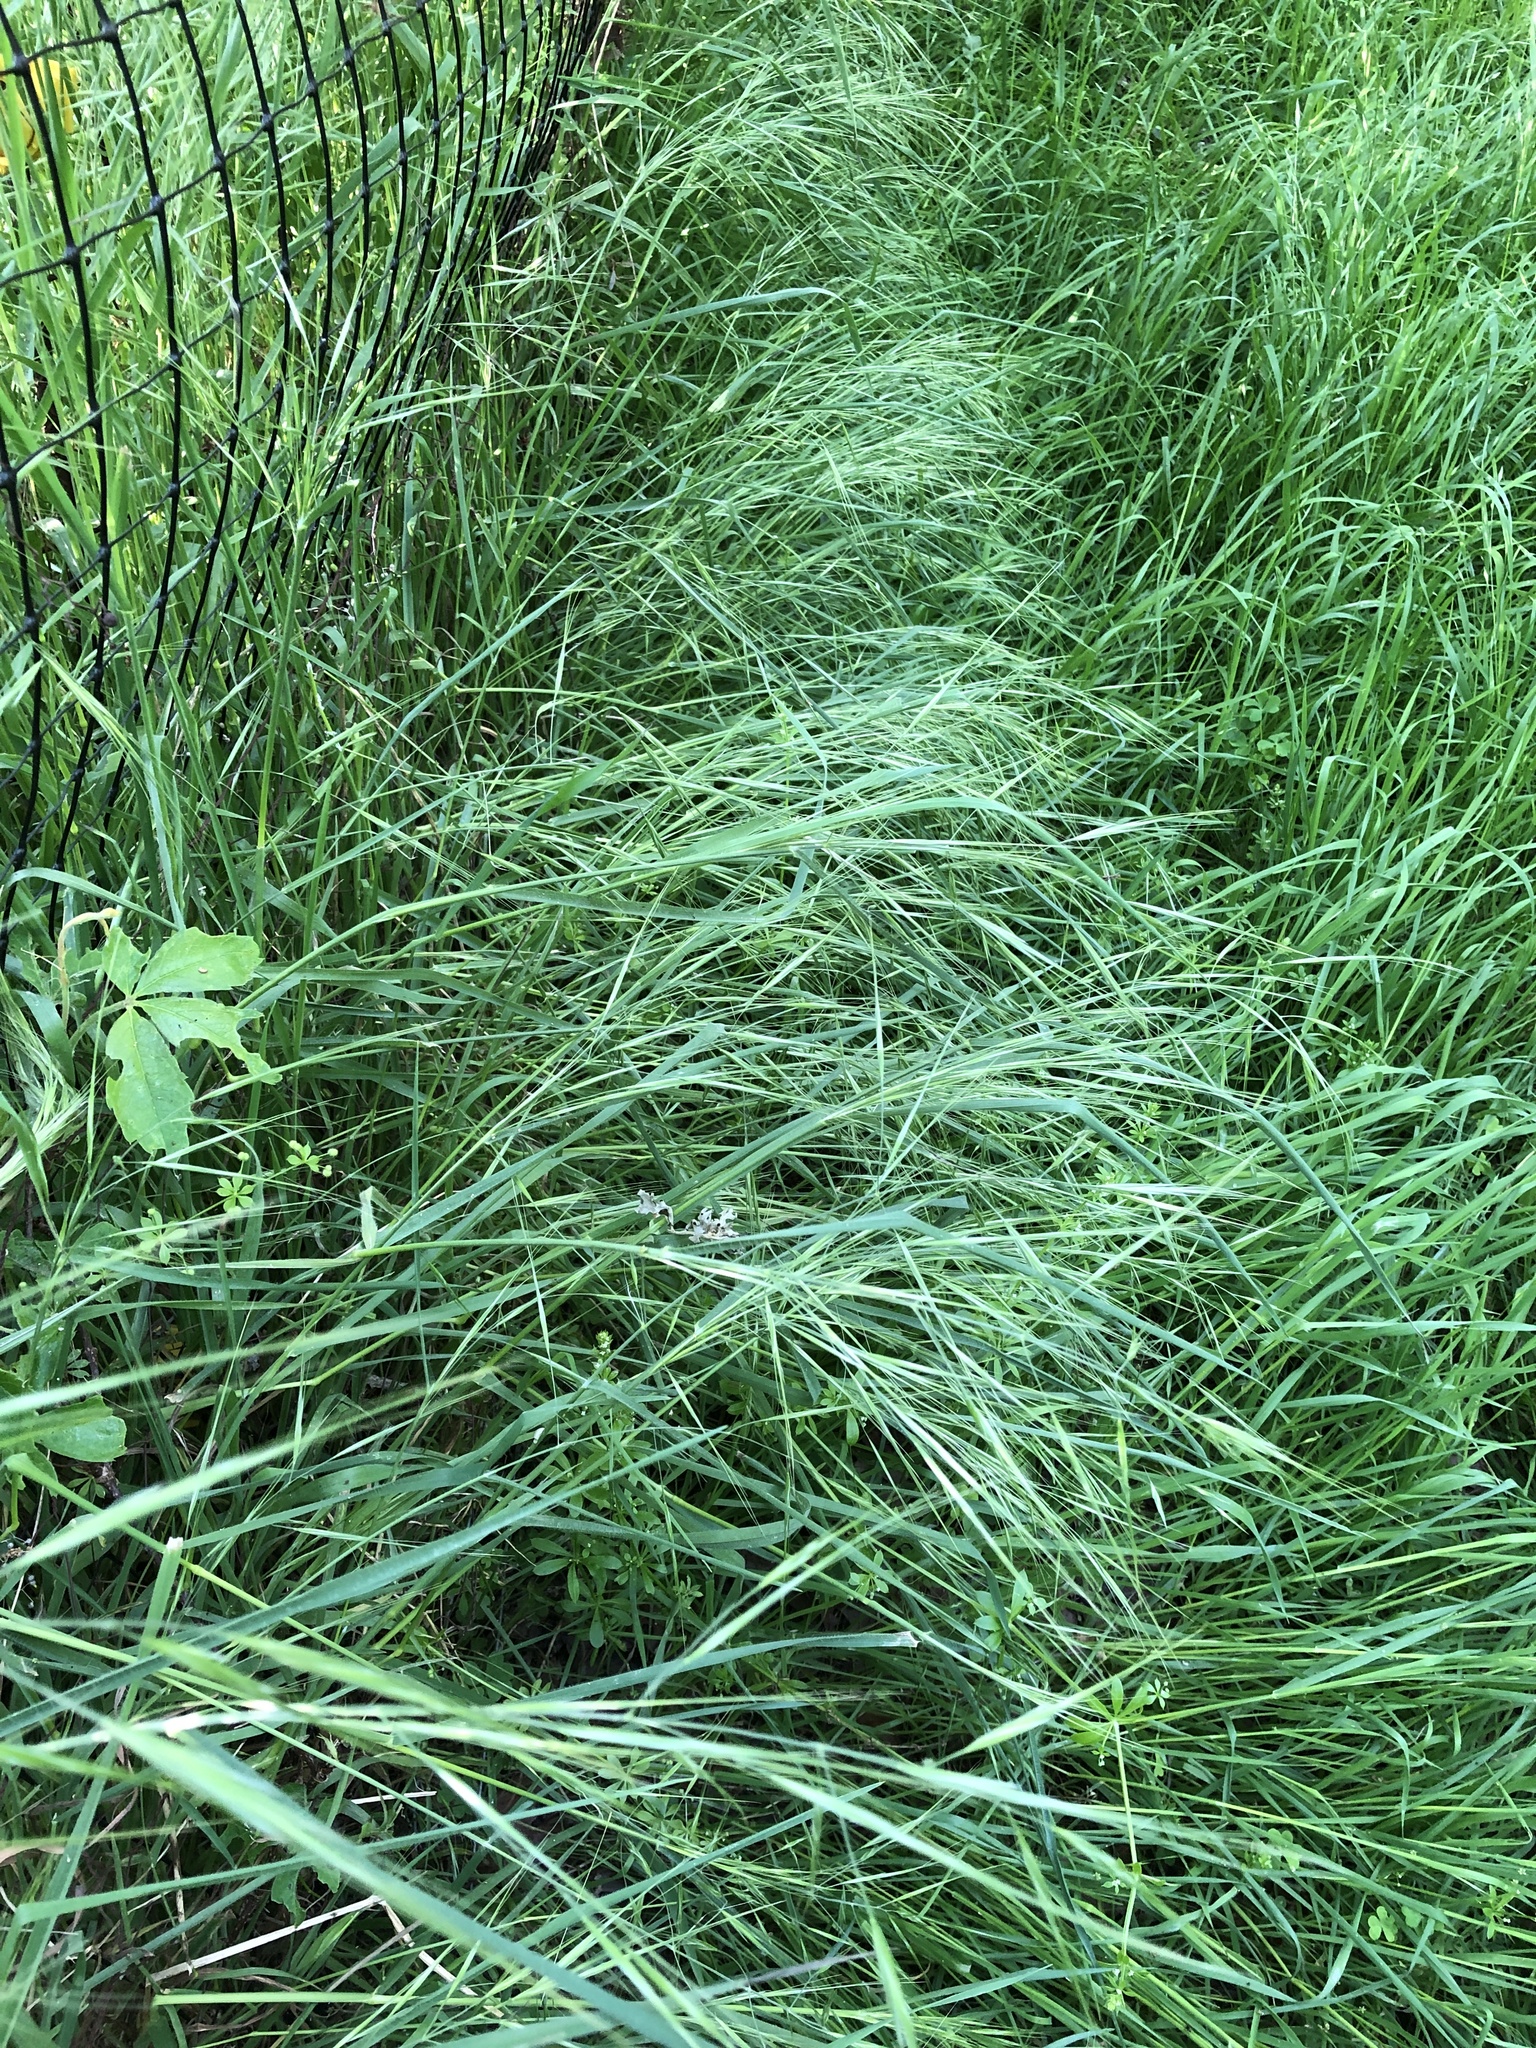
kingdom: Plantae
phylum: Tracheophyta
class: Liliopsida
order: Poales
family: Poaceae
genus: Bromus
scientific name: Bromus diandrus
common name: Ripgut brome
